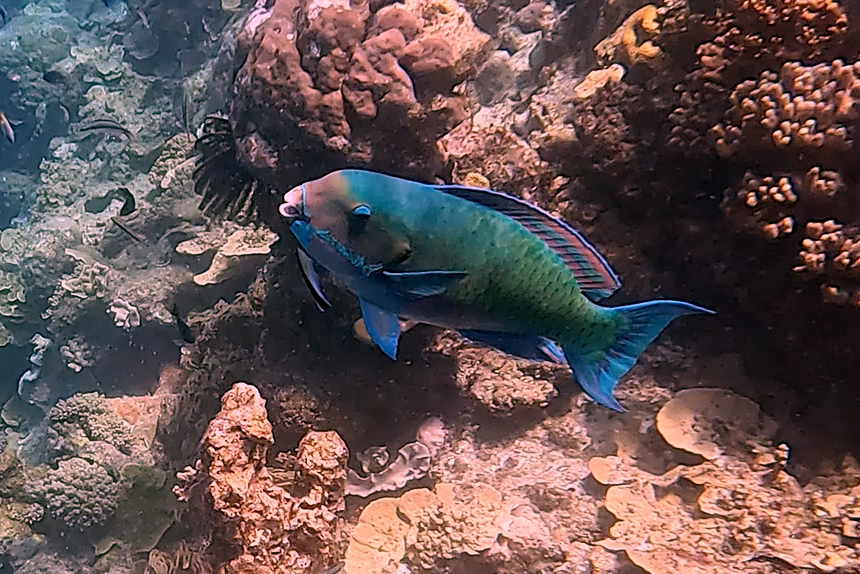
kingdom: Animalia
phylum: Chordata
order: Perciformes
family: Scaridae
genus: Chlorurus
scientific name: Chlorurus microrhinos
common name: Steephead parrotfish
